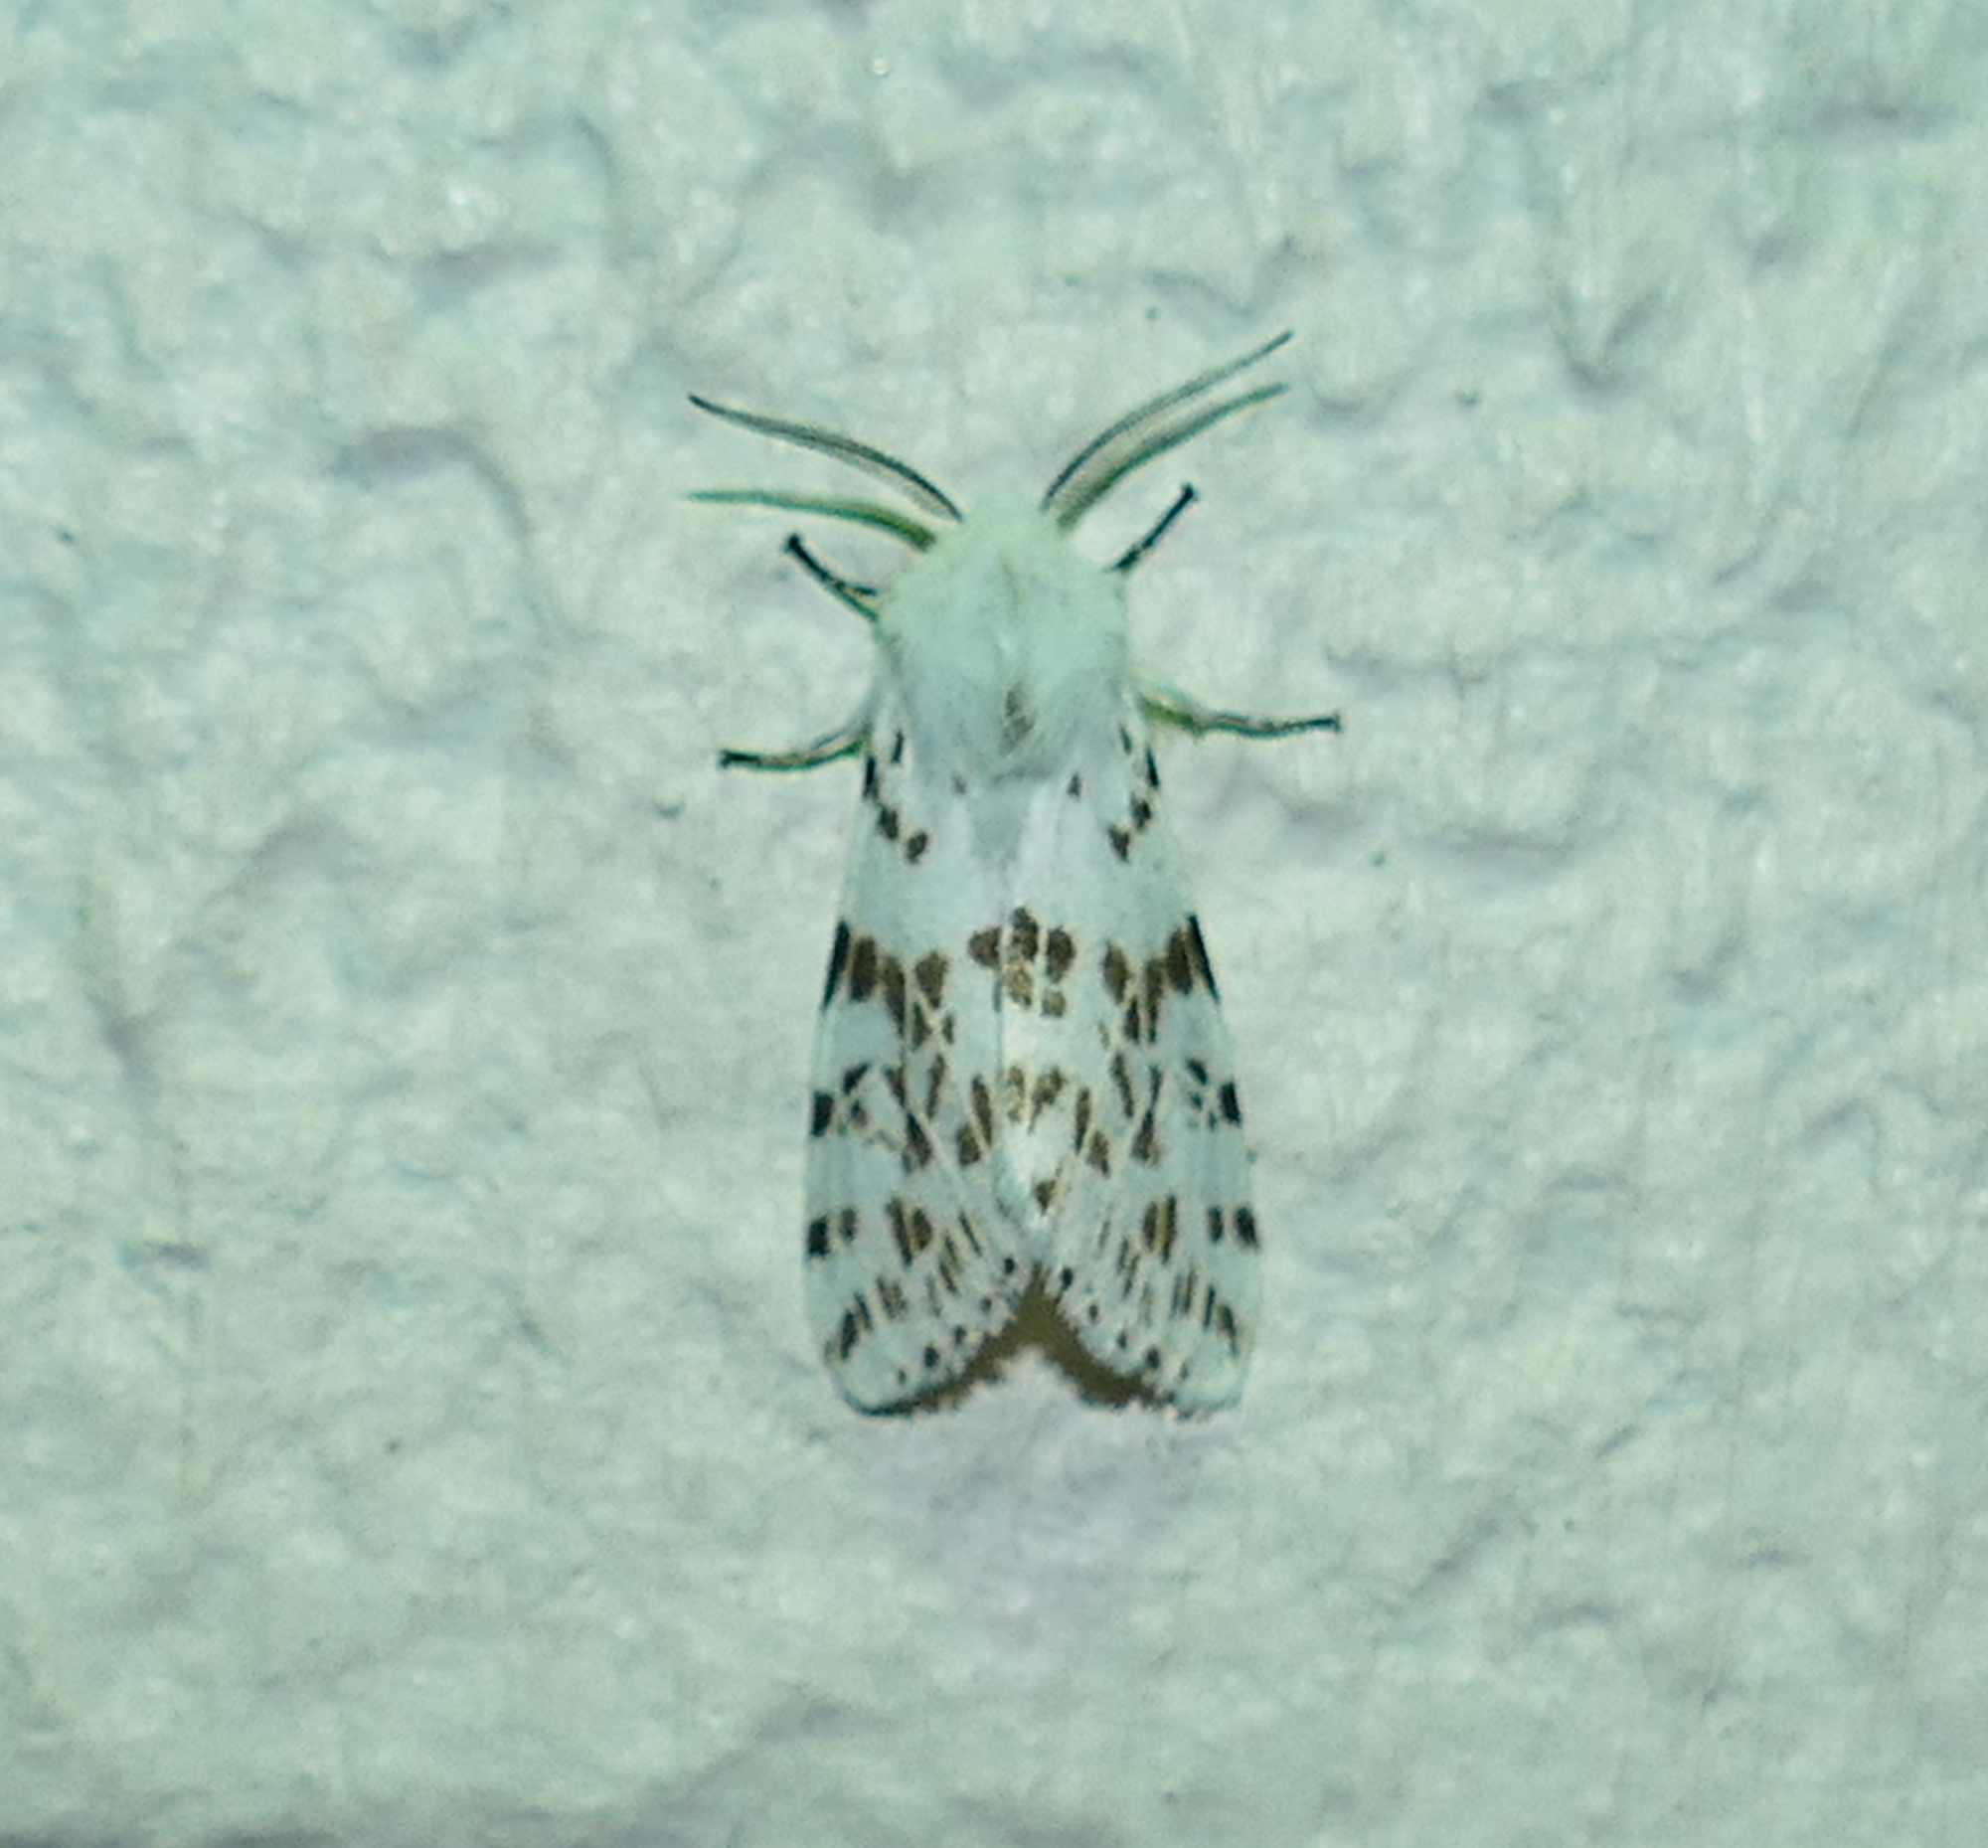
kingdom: Animalia
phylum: Arthropoda
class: Insecta
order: Lepidoptera
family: Erebidae
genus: Hyphantria
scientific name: Hyphantria cunea
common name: American white moth
